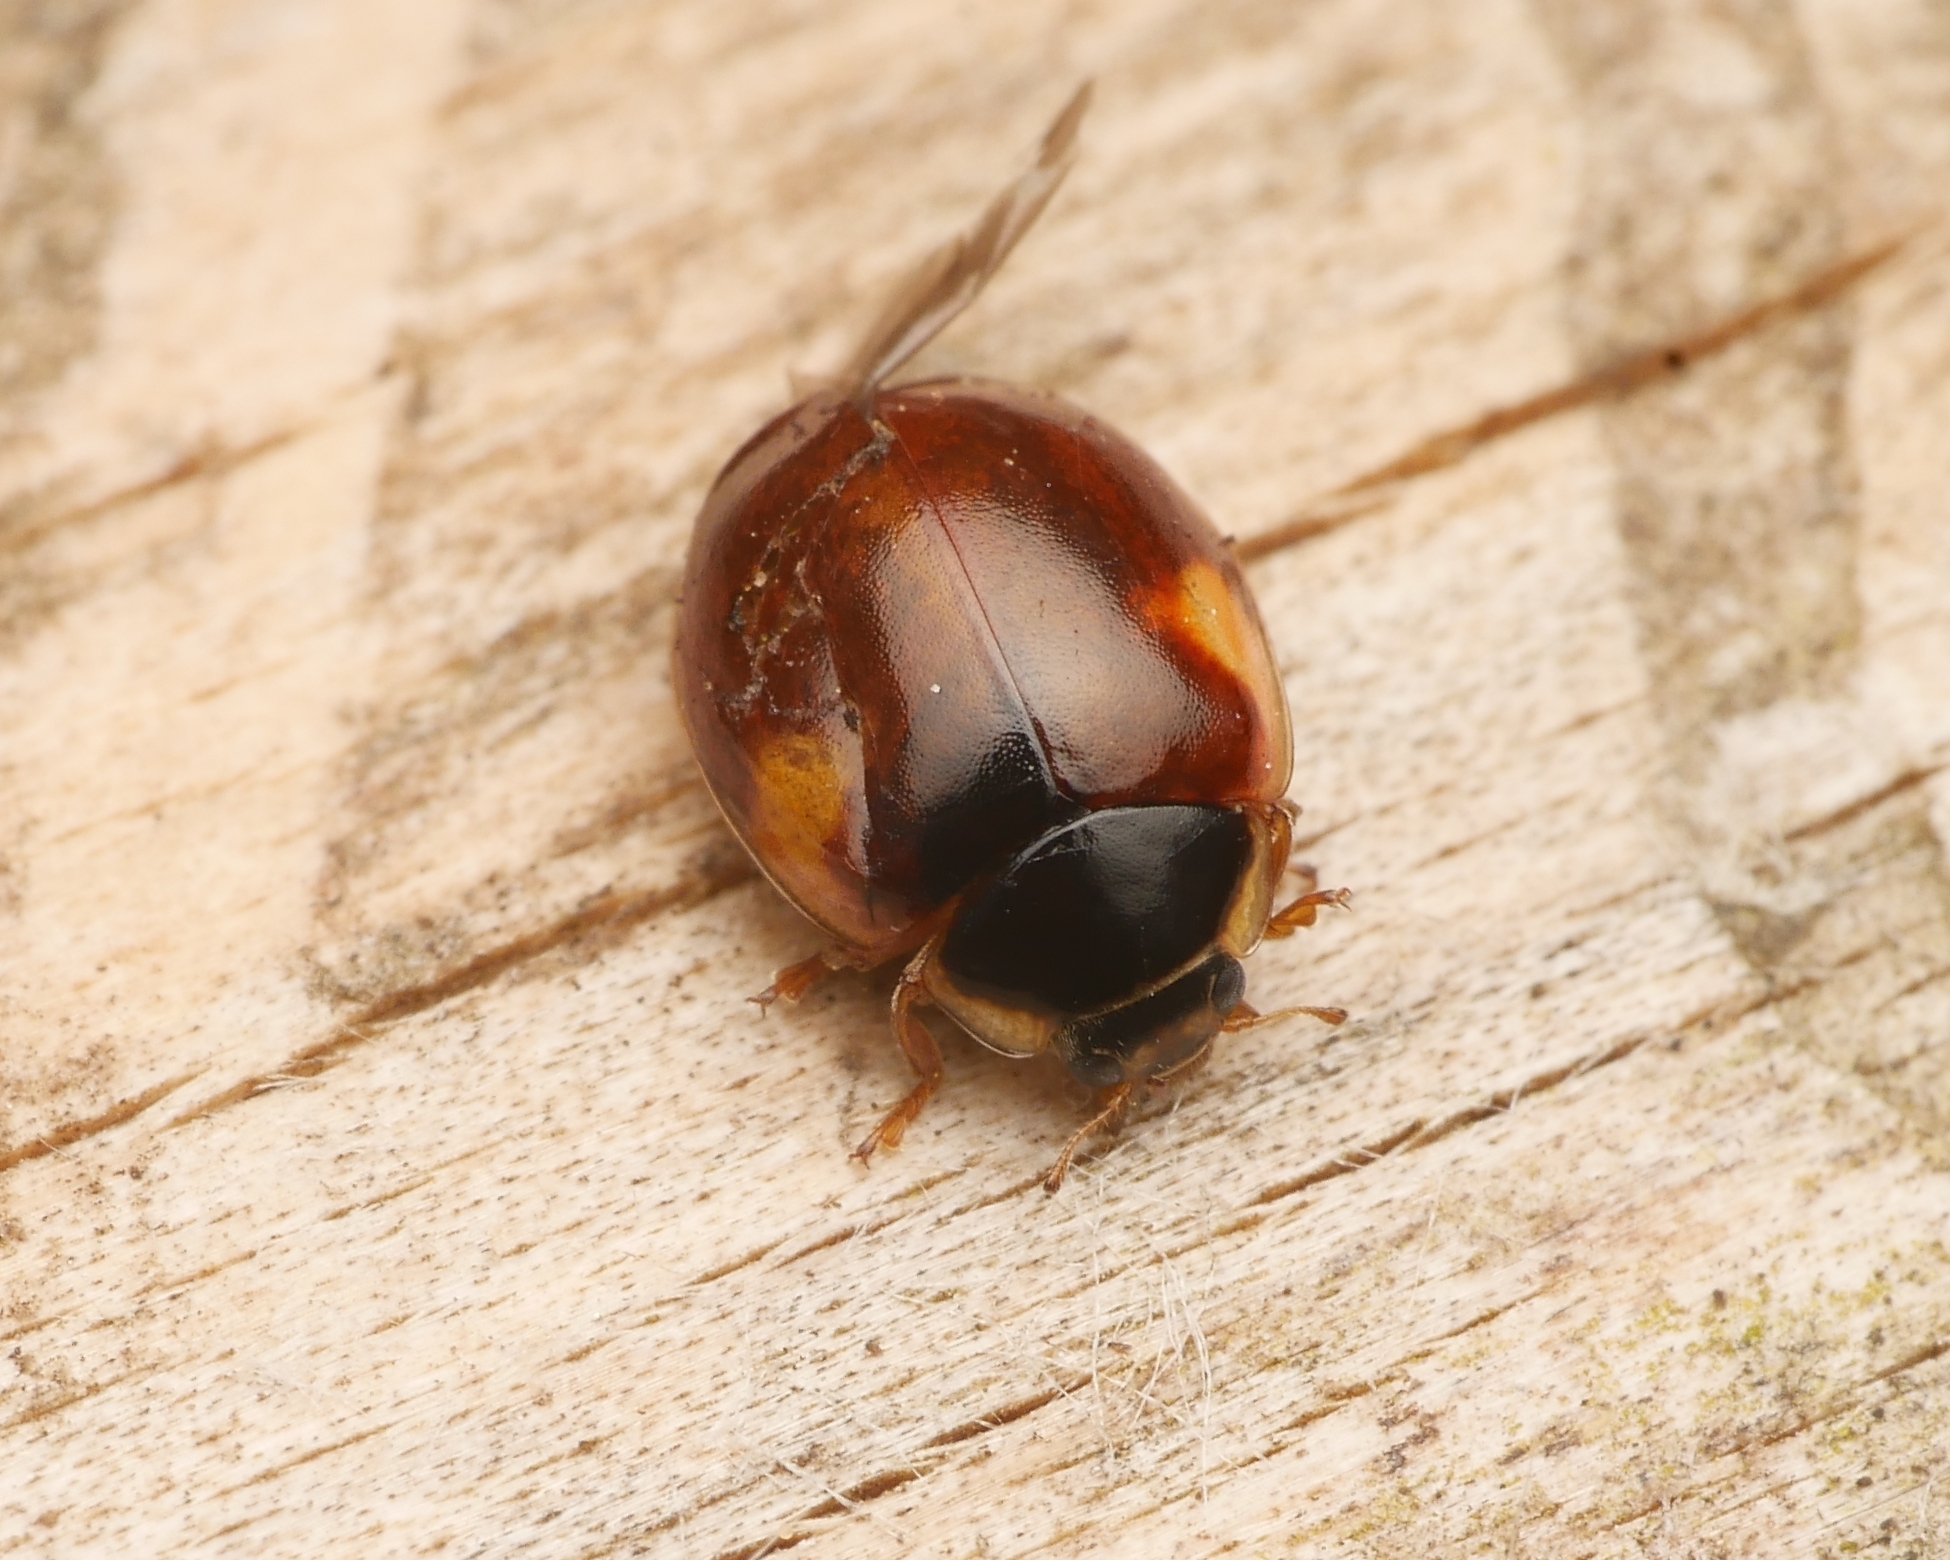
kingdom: Animalia
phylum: Arthropoda
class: Insecta
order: Coleoptera
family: Coccinellidae
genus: Adalia
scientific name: Adalia decempunctata
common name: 10-spot ladybird
